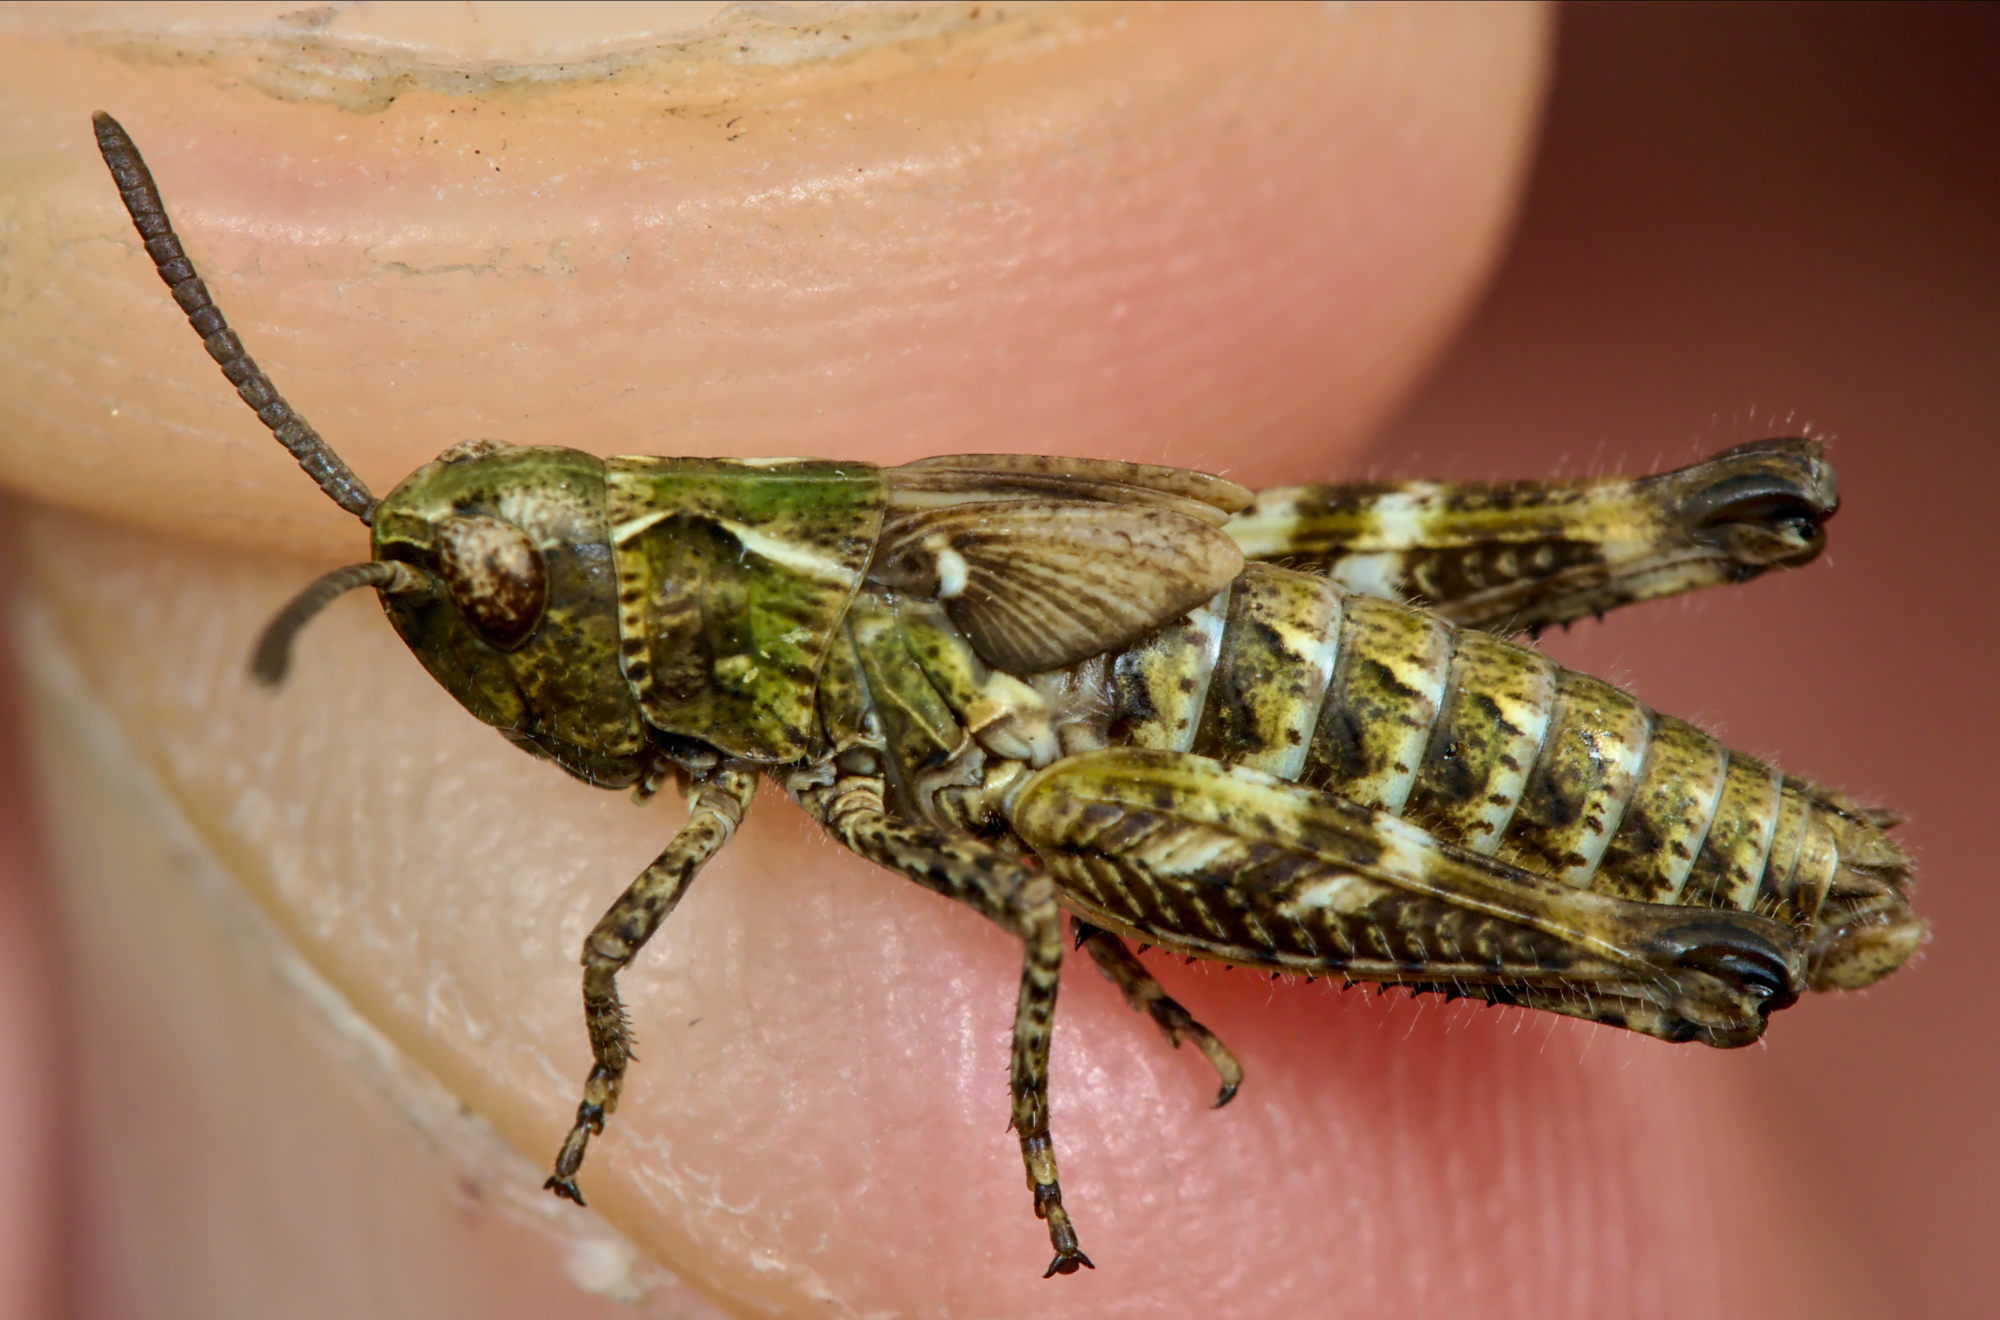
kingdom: Animalia
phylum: Arthropoda
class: Insecta
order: Orthoptera
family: Acrididae
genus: Myrmeleotettix
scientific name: Myrmeleotettix maculatus
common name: Mottled grasshopper
